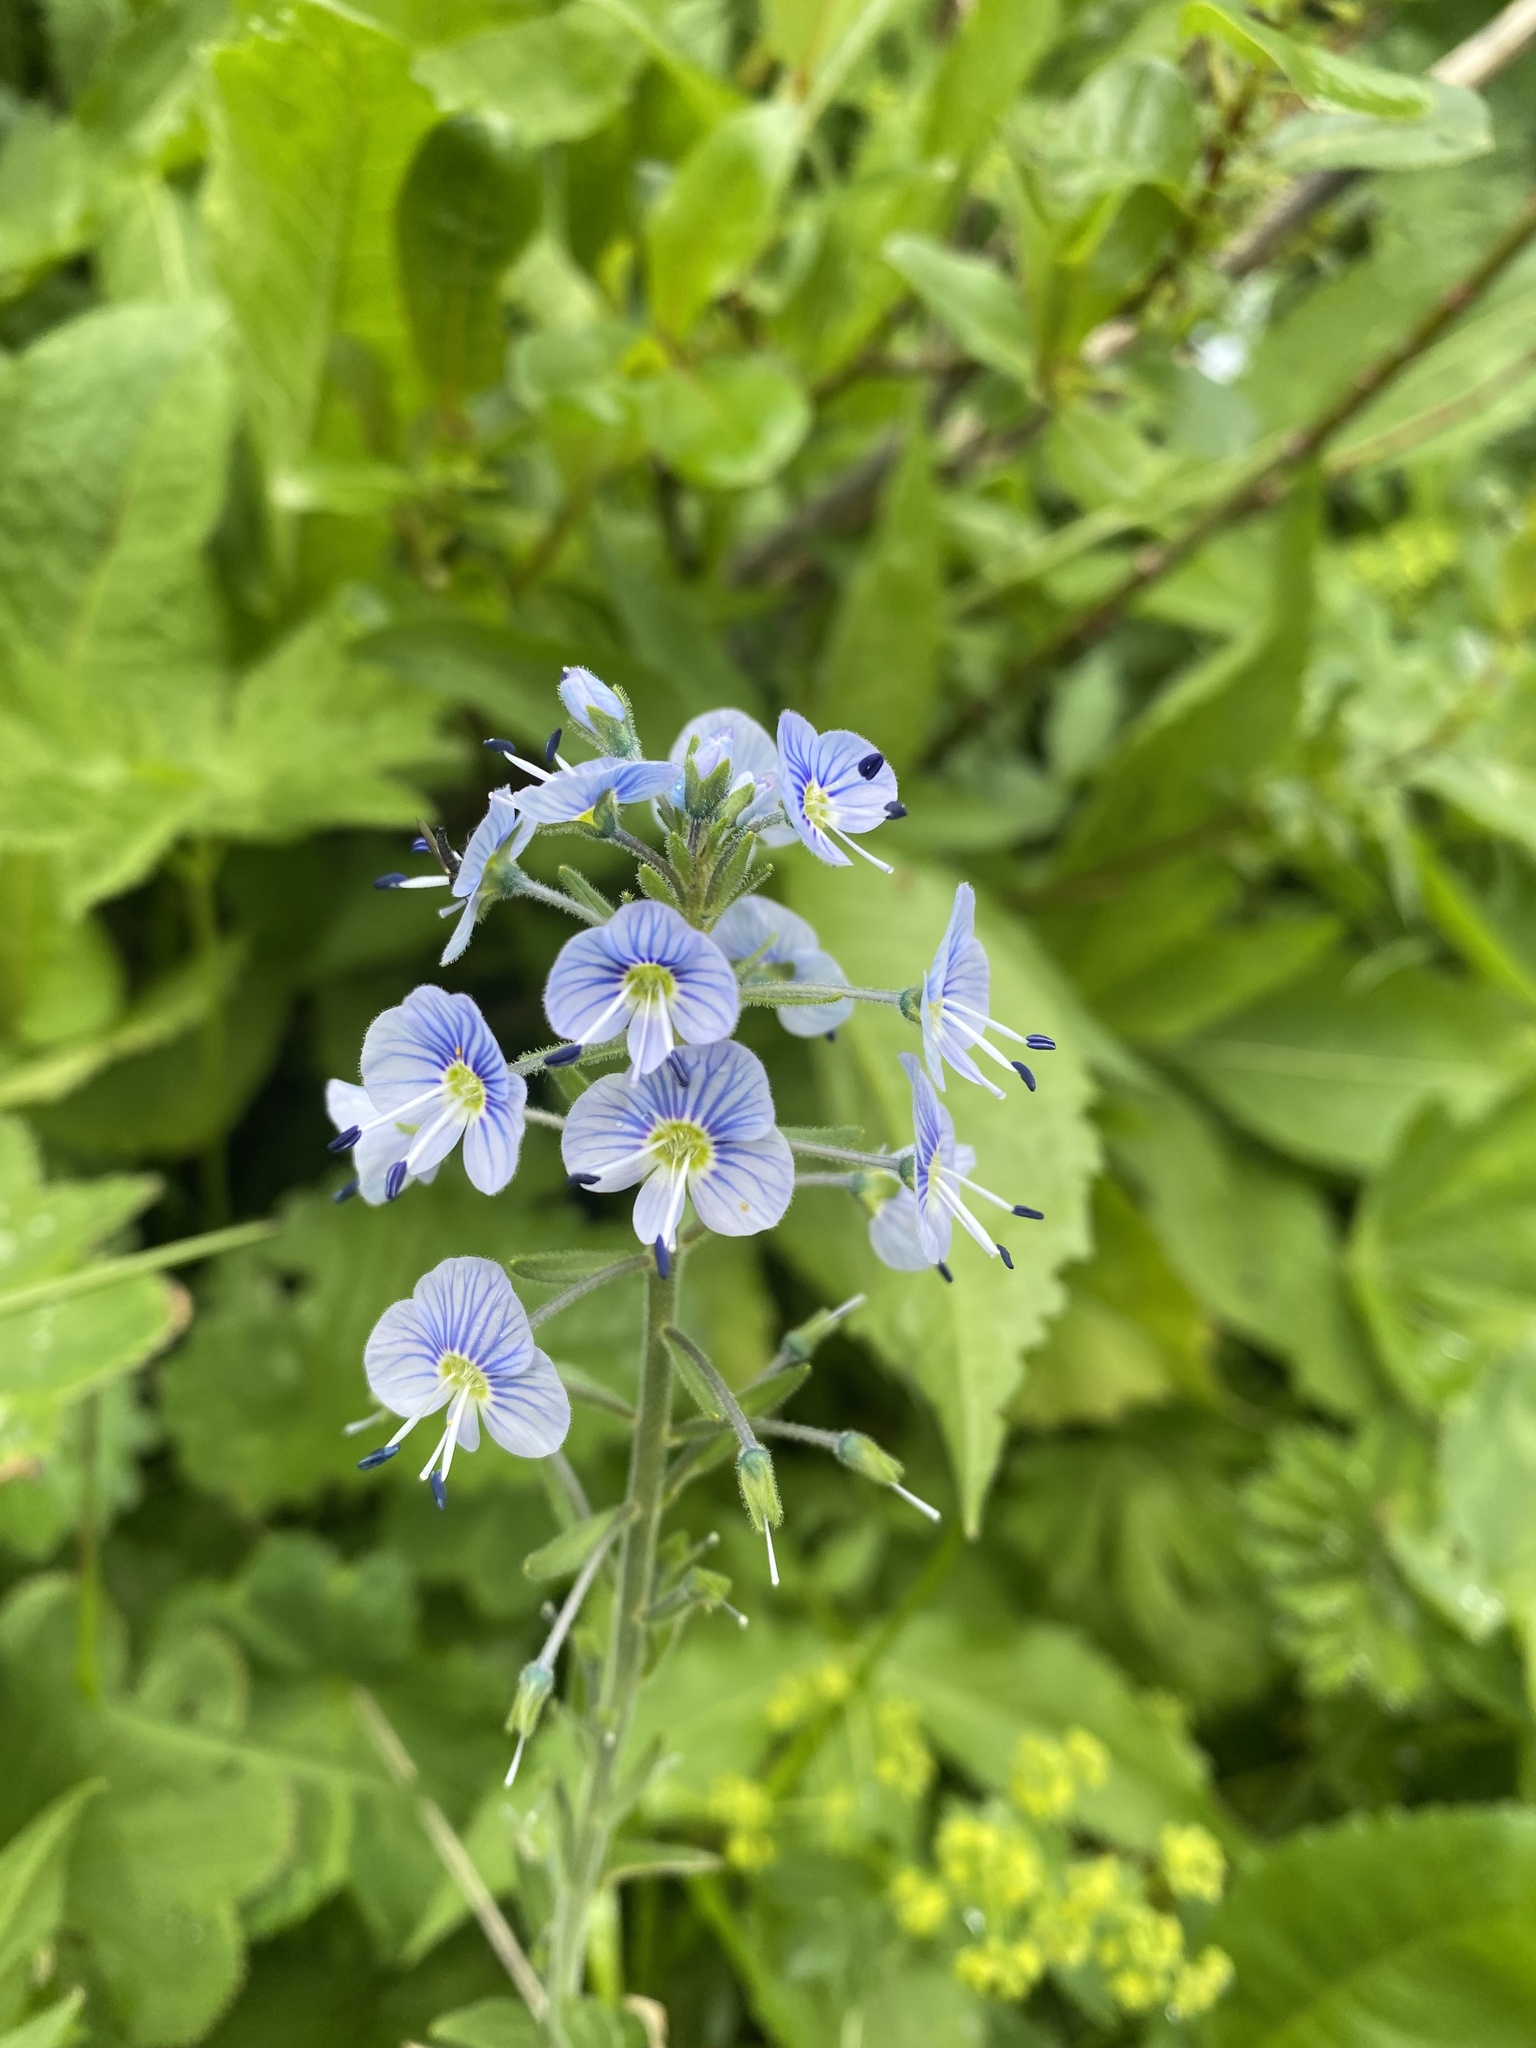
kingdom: Plantae
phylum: Tracheophyta
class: Magnoliopsida
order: Lamiales
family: Plantaginaceae
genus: Veronica
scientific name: Veronica gentianoides
